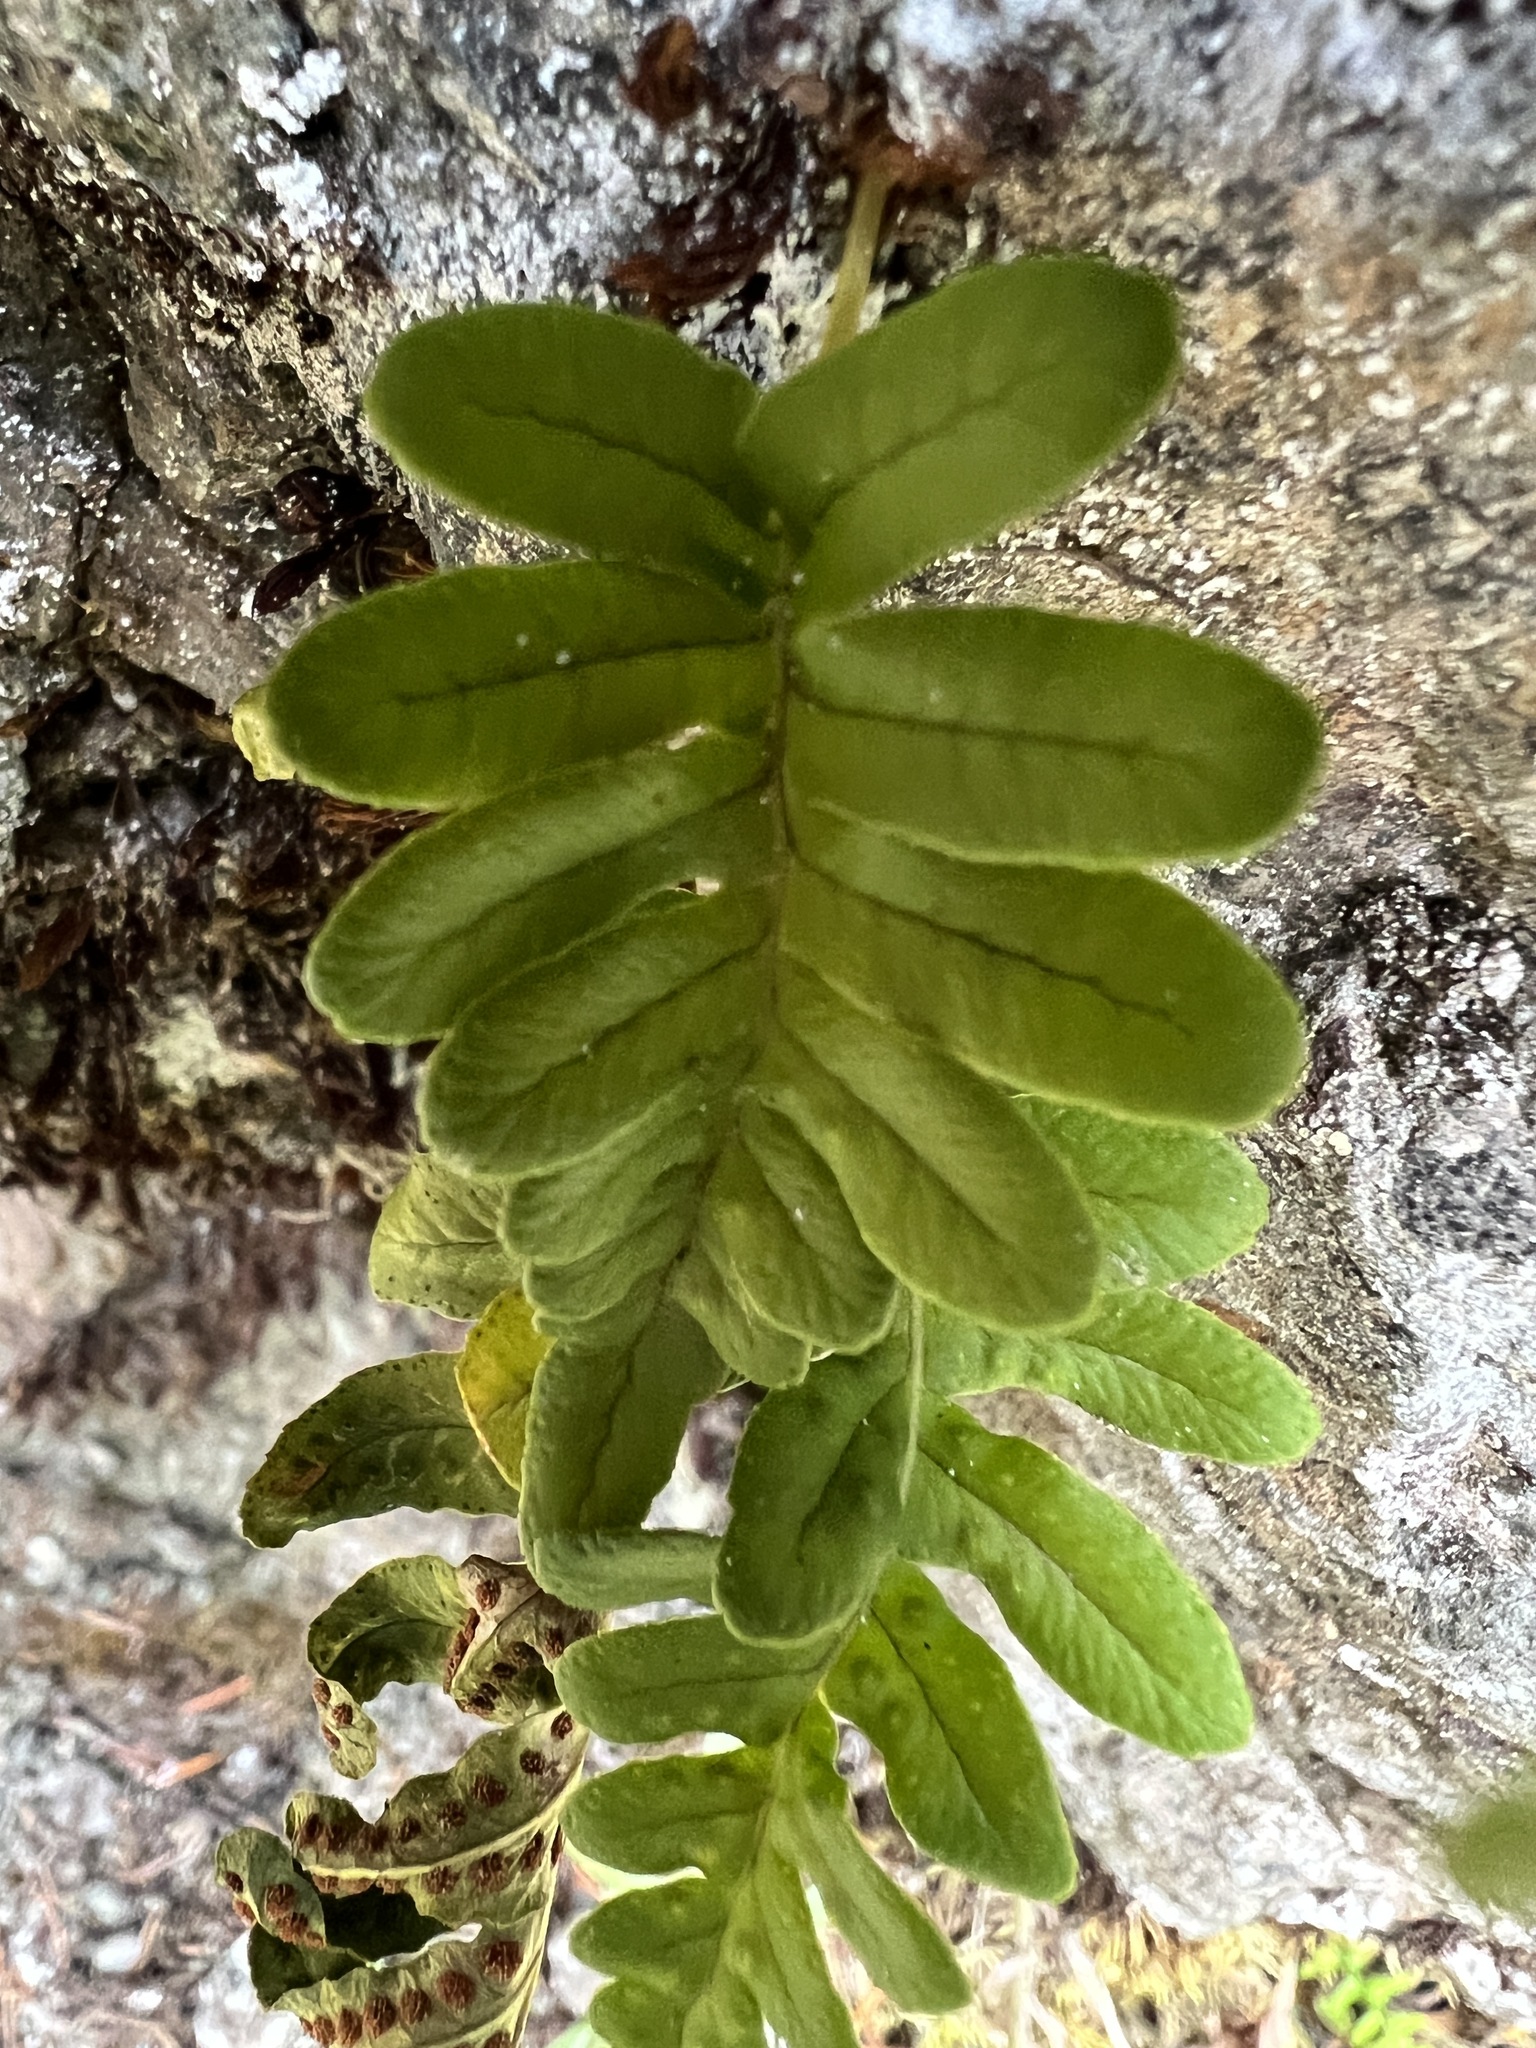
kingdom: Plantae
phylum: Tracheophyta
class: Polypodiopsida
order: Polypodiales
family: Polypodiaceae
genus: Polypodium
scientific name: Polypodium amorphum
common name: Pacific polypody
